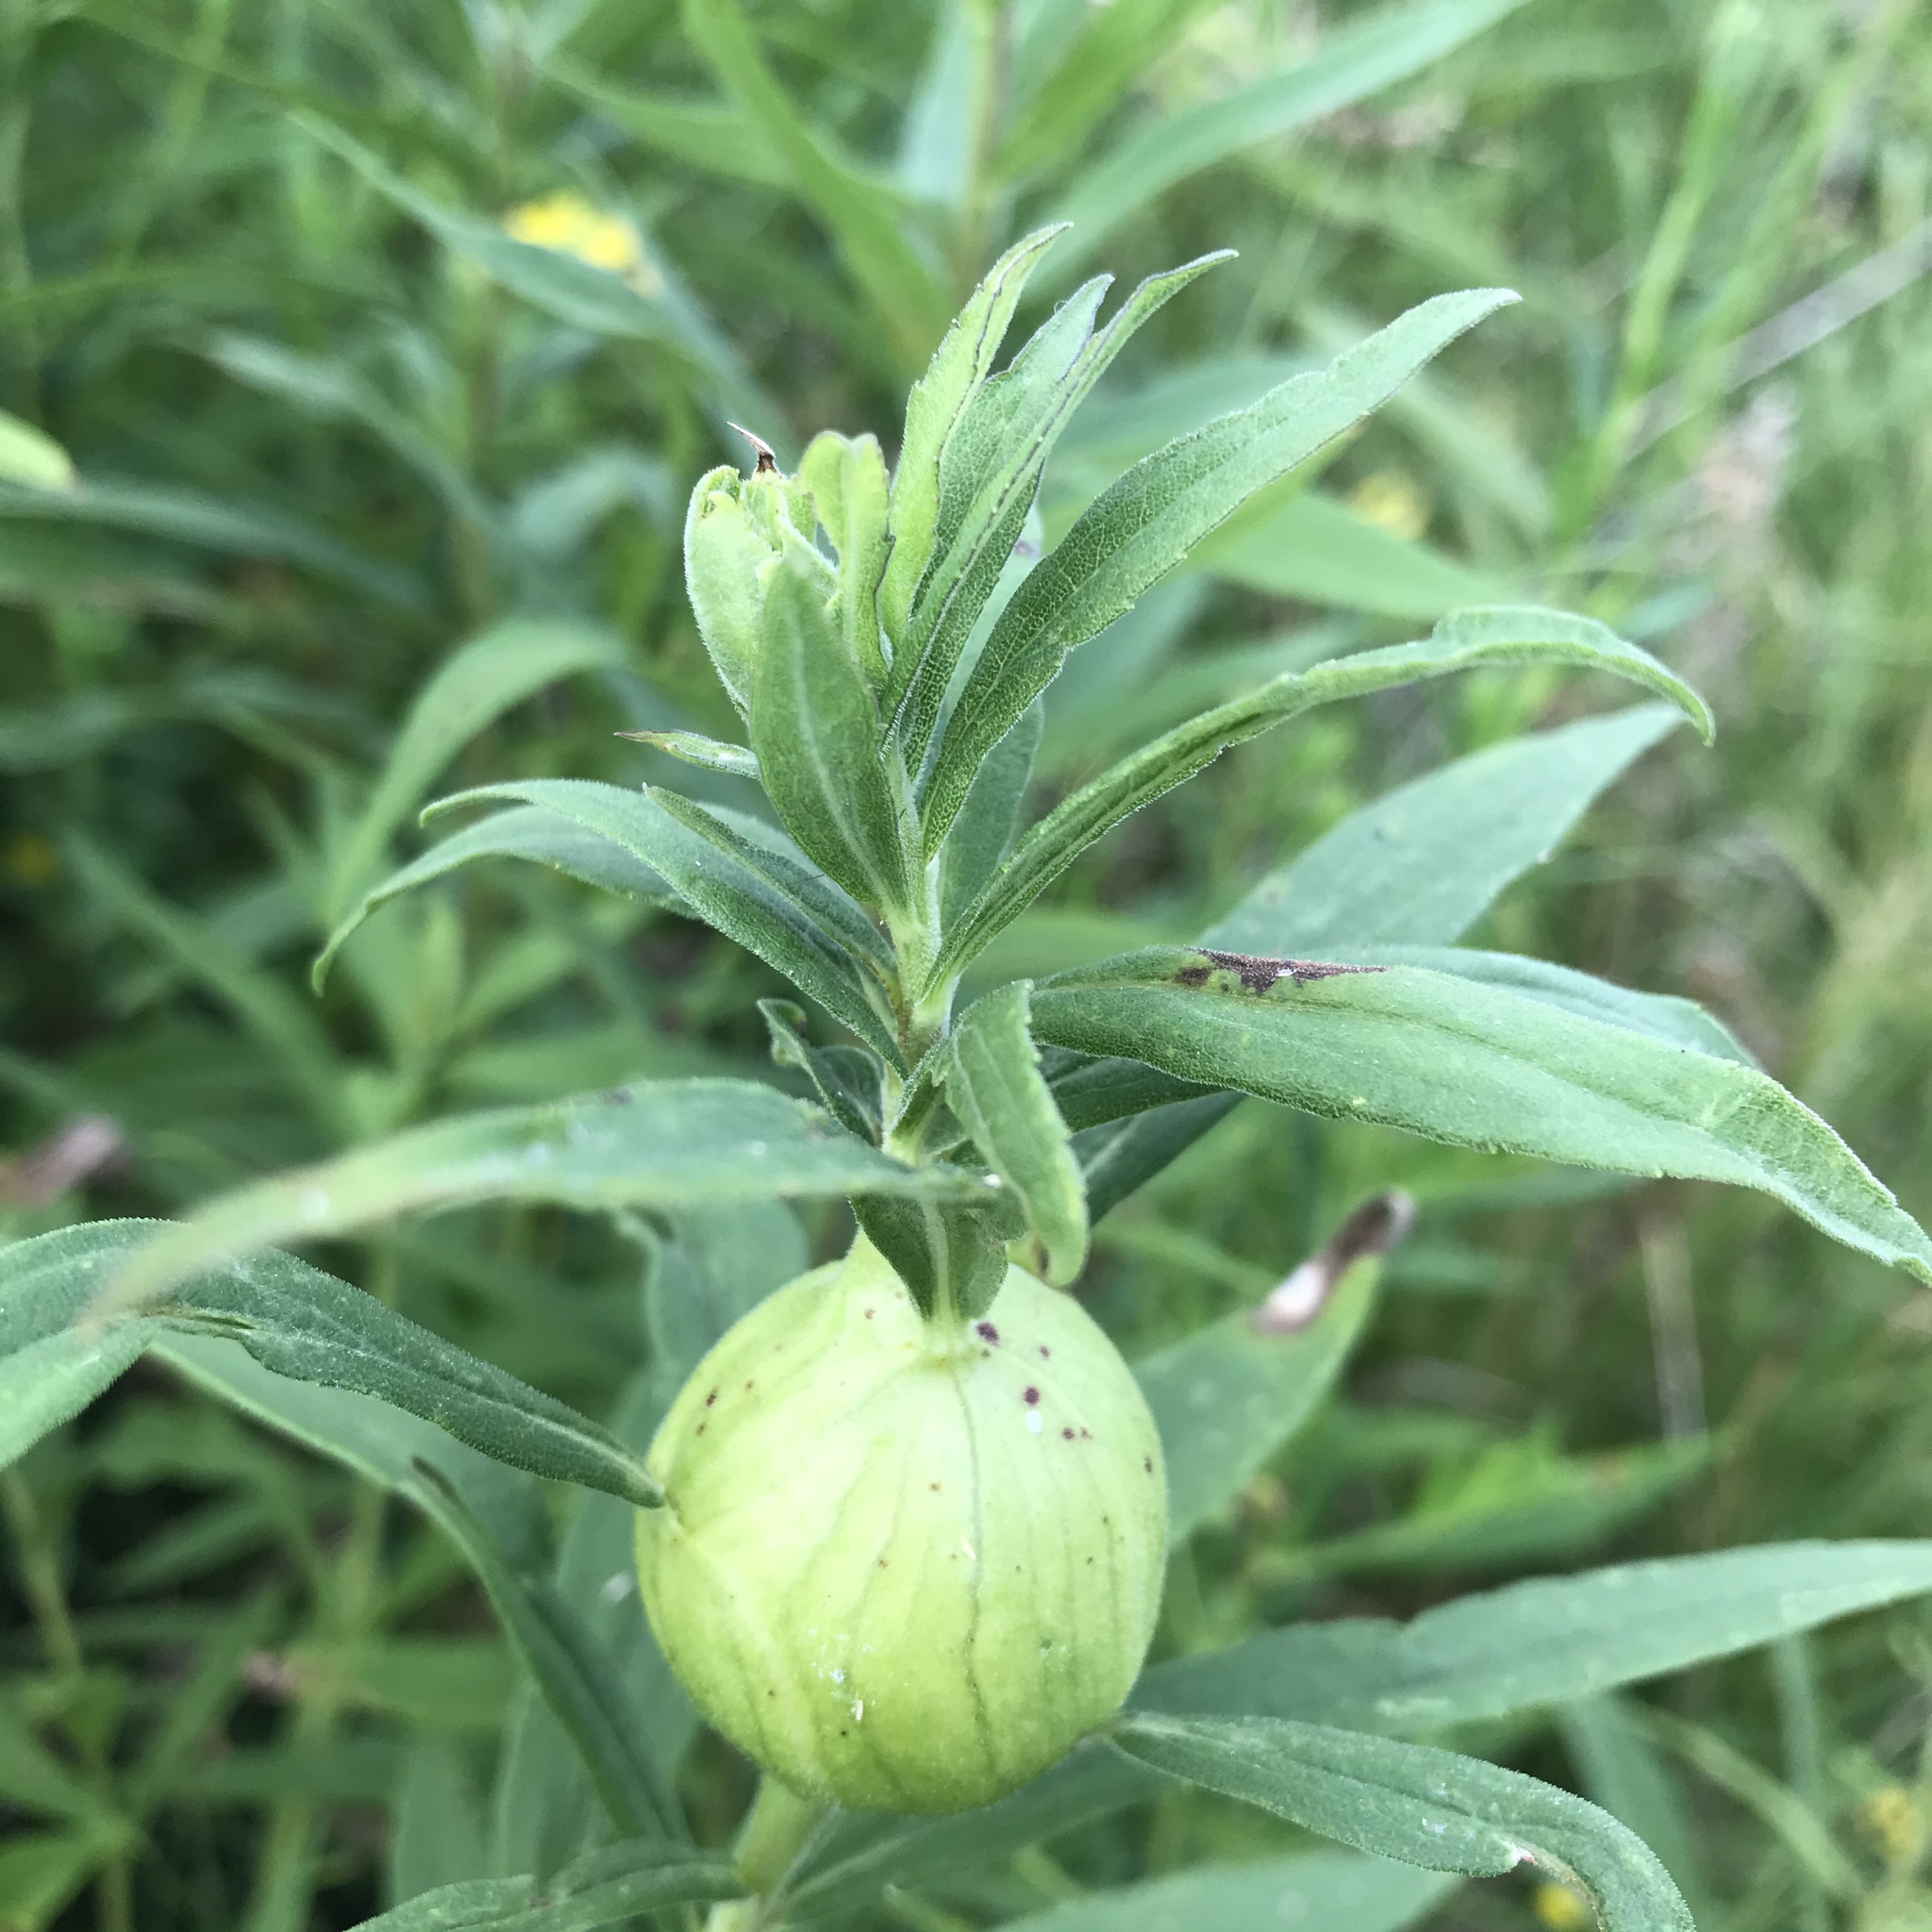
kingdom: Animalia
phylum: Arthropoda
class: Insecta
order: Diptera
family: Tephritidae
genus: Eurosta
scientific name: Eurosta solidaginis
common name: Goldenrod gall fly
